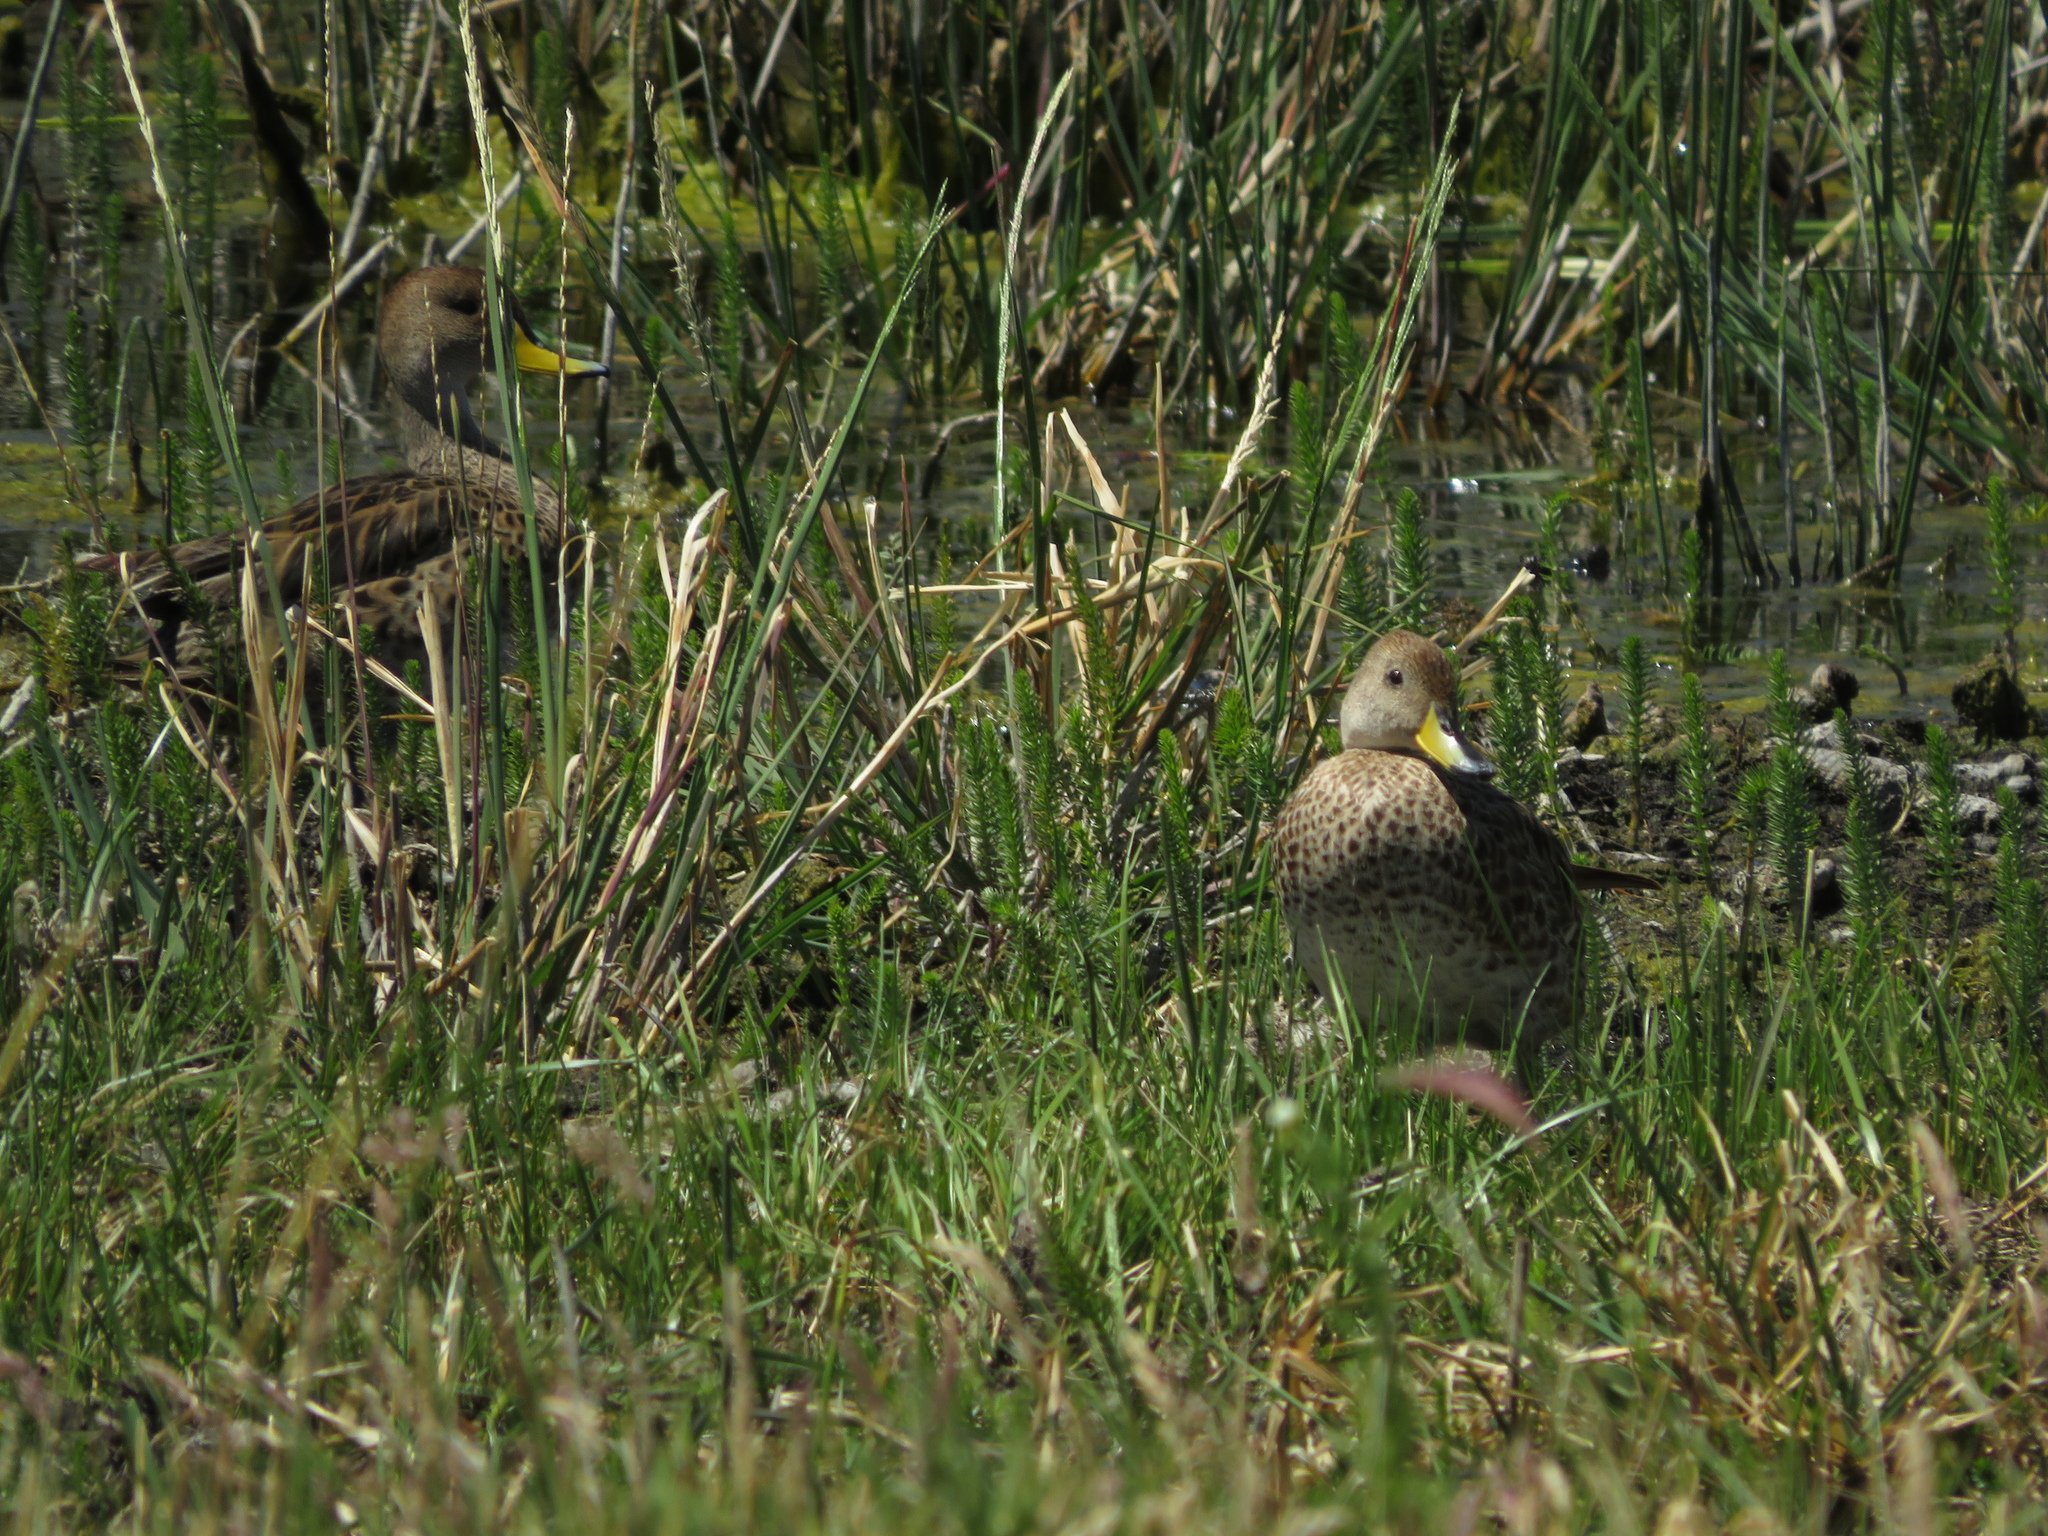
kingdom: Animalia
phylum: Chordata
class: Aves
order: Anseriformes
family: Anatidae
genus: Anas
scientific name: Anas georgica
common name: Yellow-billed pintail
